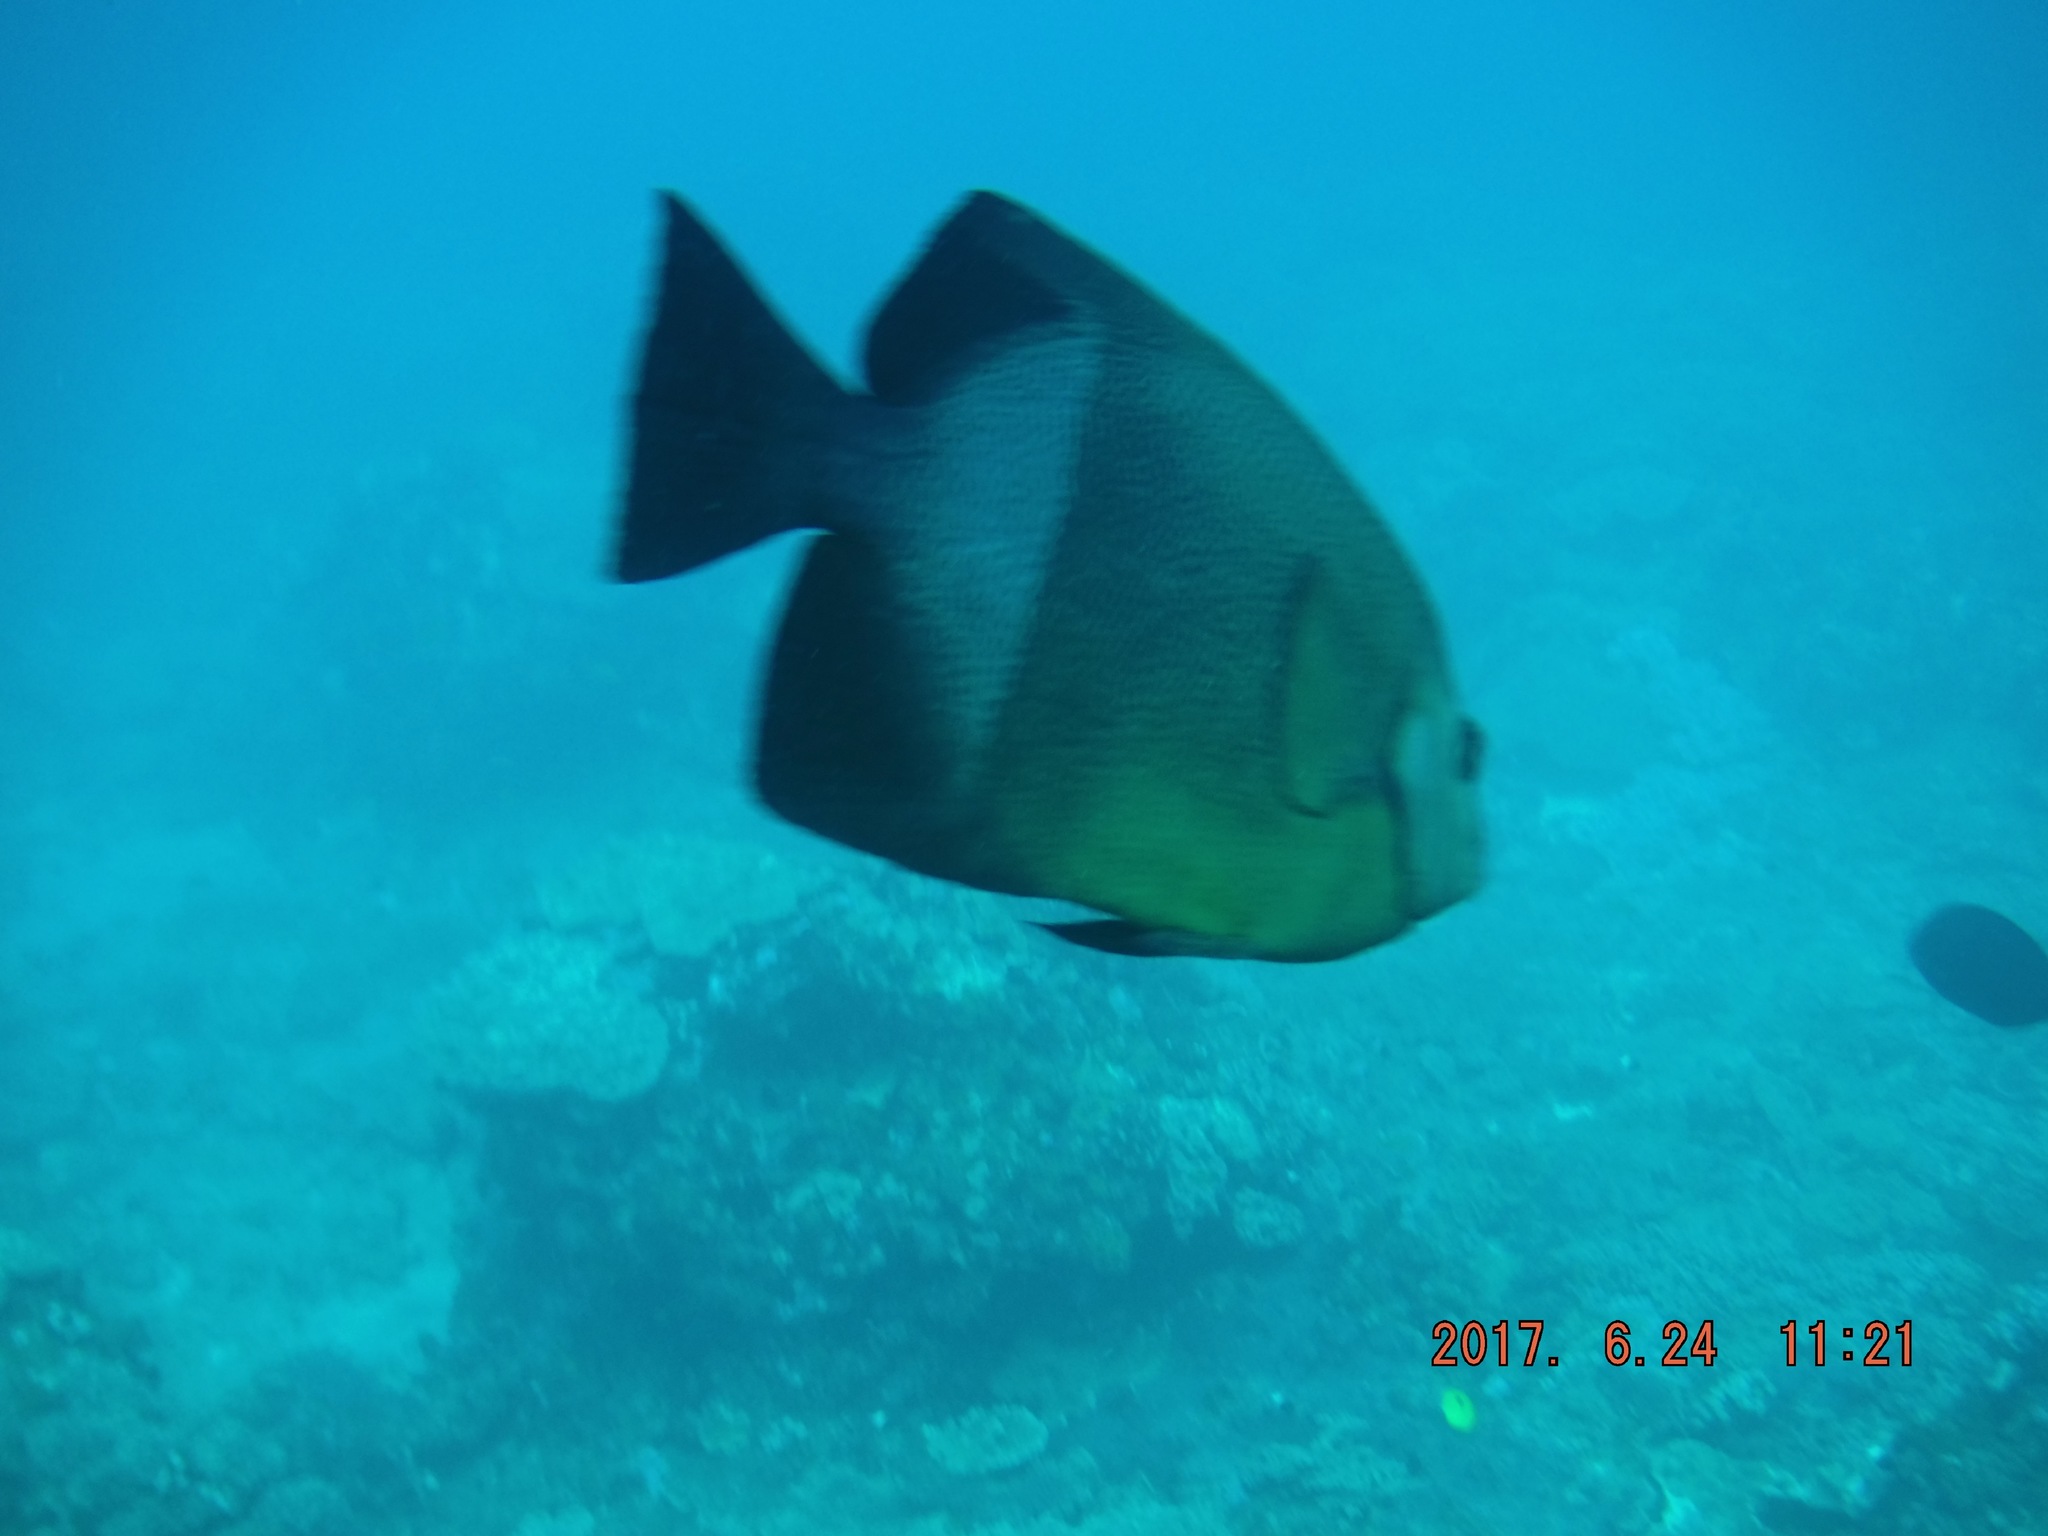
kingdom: Animalia
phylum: Chordata
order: Perciformes
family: Pomacanthidae
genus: Pomacanthus
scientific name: Pomacanthus rhomboides
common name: Old woman
